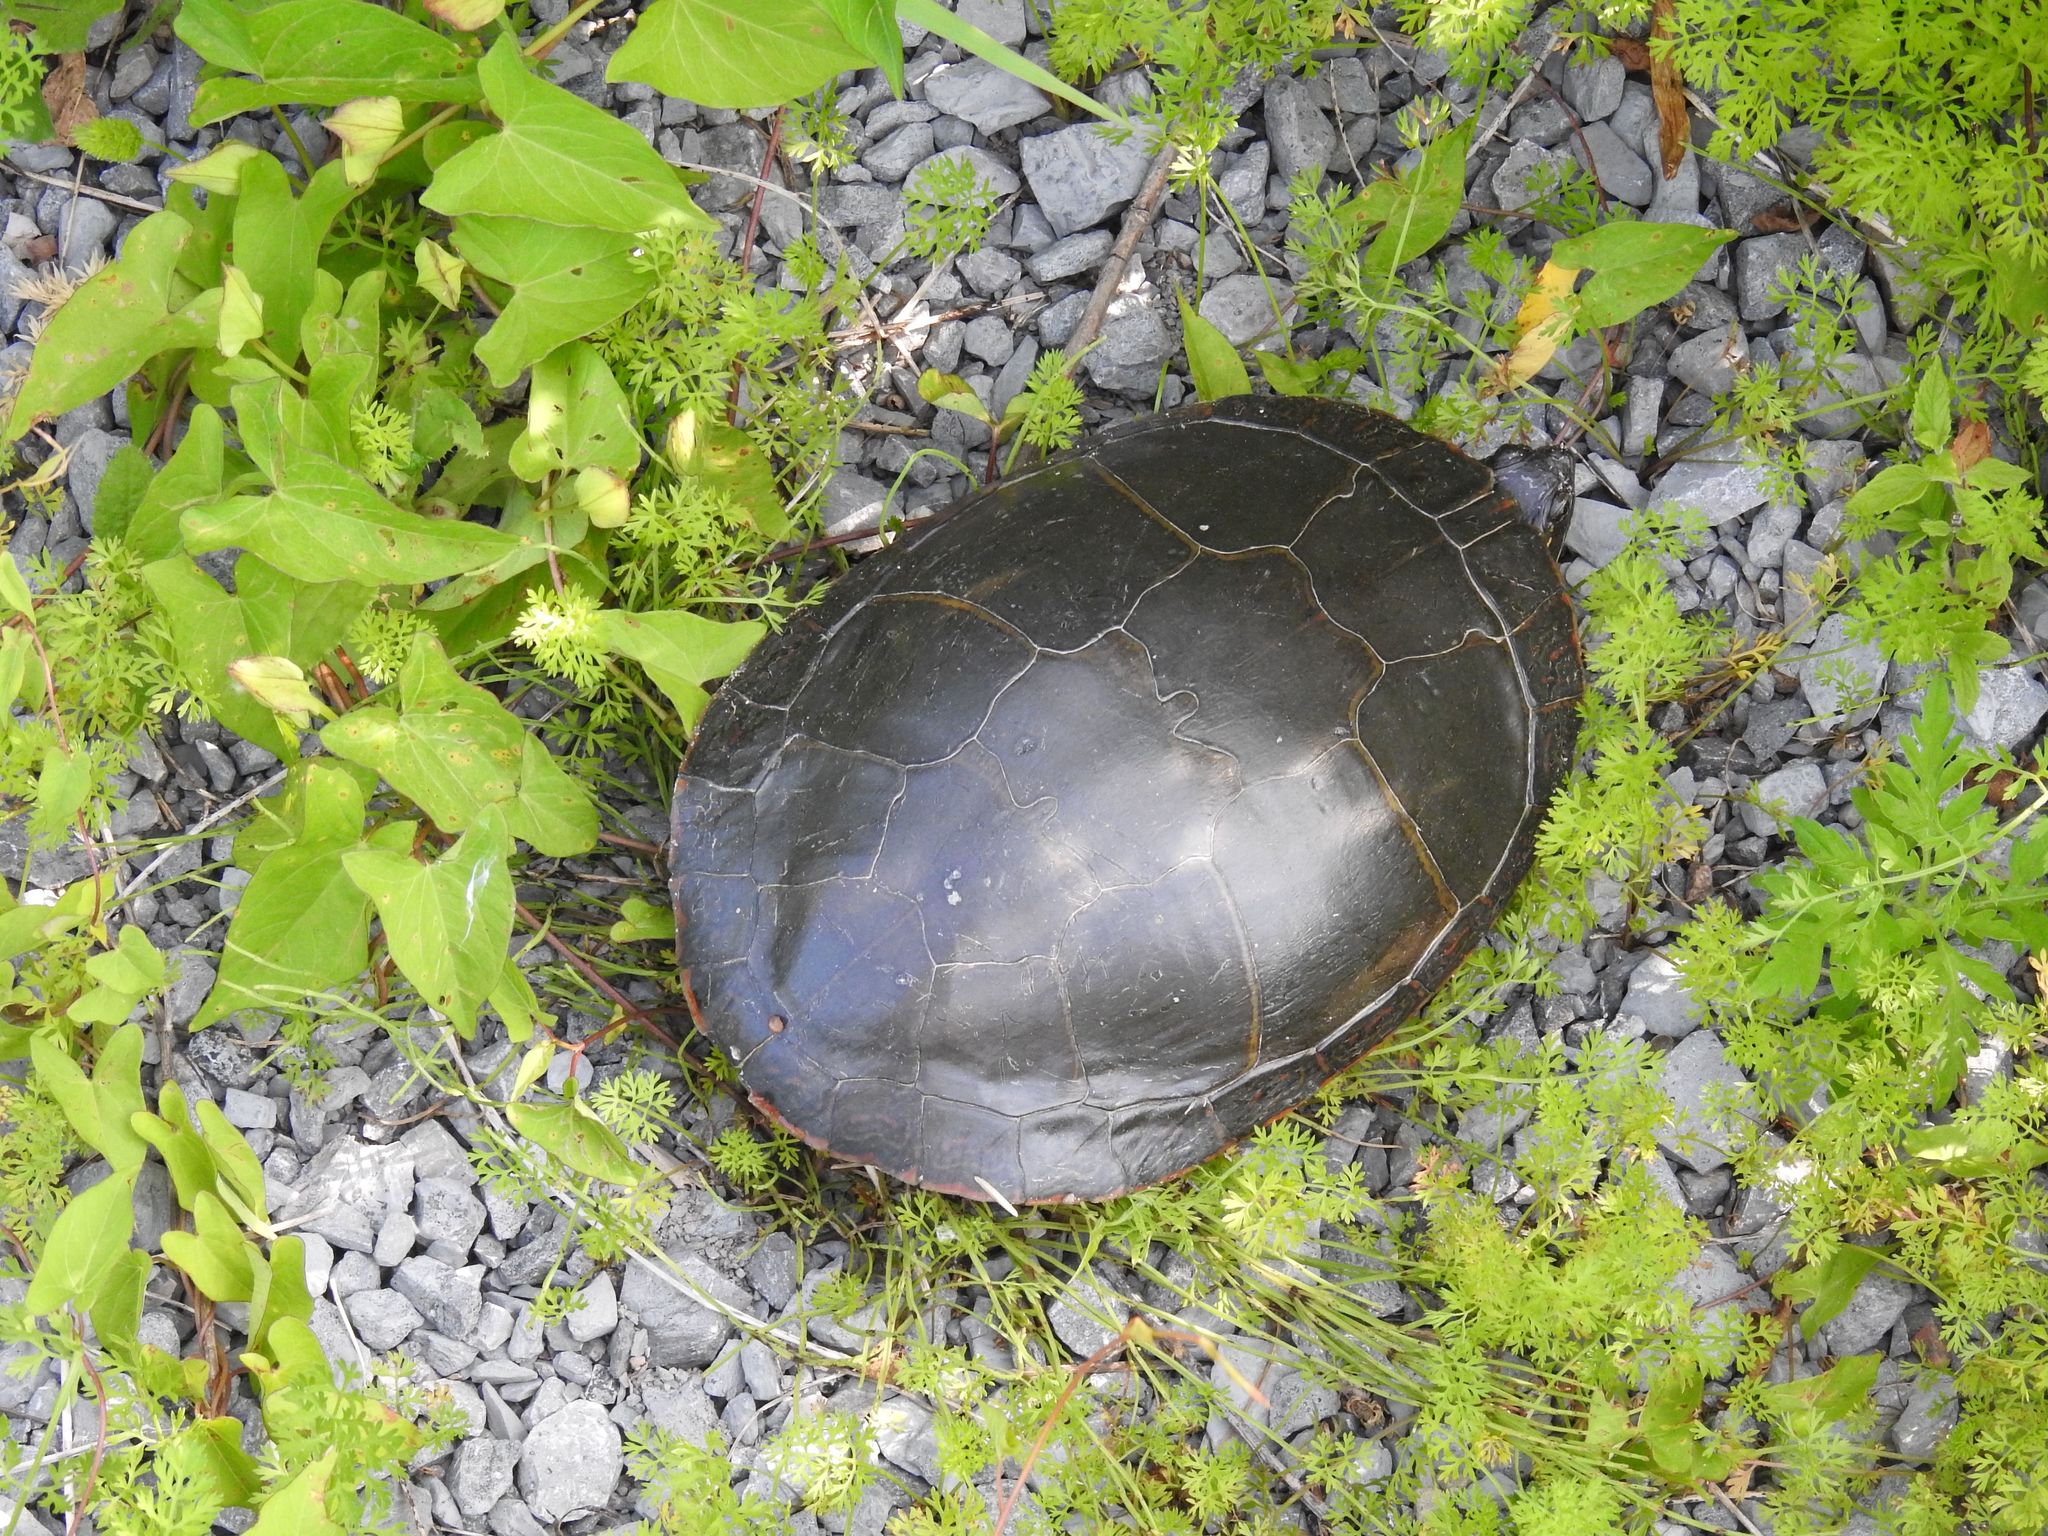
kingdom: Animalia
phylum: Chordata
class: Testudines
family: Emydidae
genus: Chrysemys
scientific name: Chrysemys picta
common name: Painted turtle
